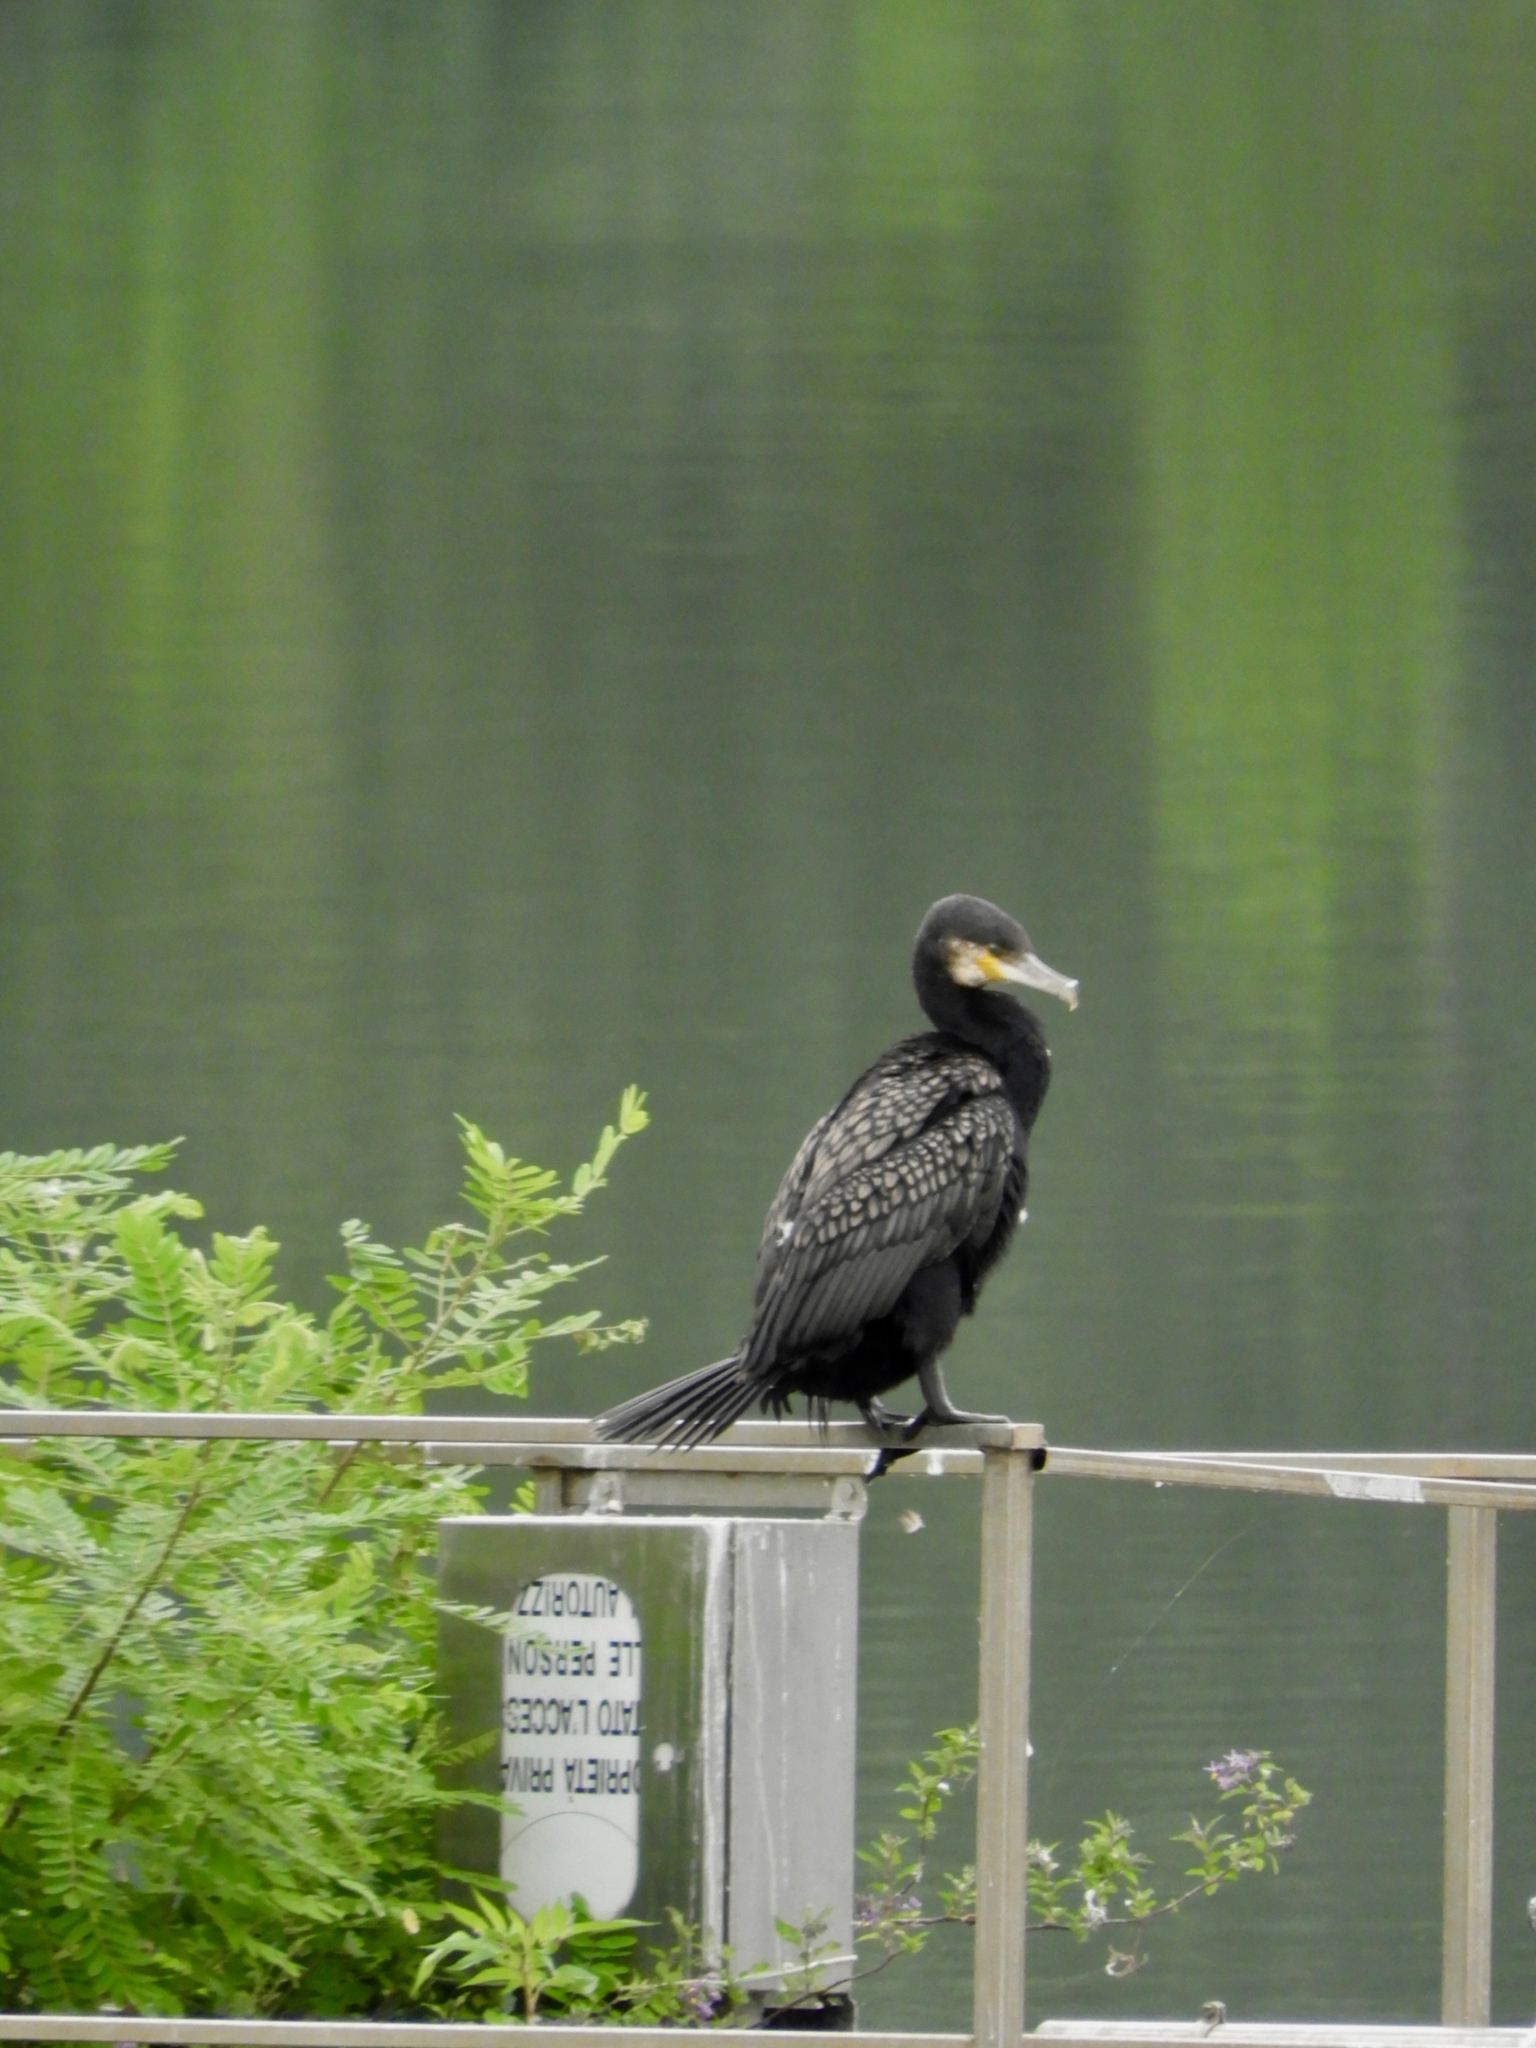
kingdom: Animalia
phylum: Chordata
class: Aves
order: Suliformes
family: Phalacrocoracidae
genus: Phalacrocorax
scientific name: Phalacrocorax carbo
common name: Great cormorant
